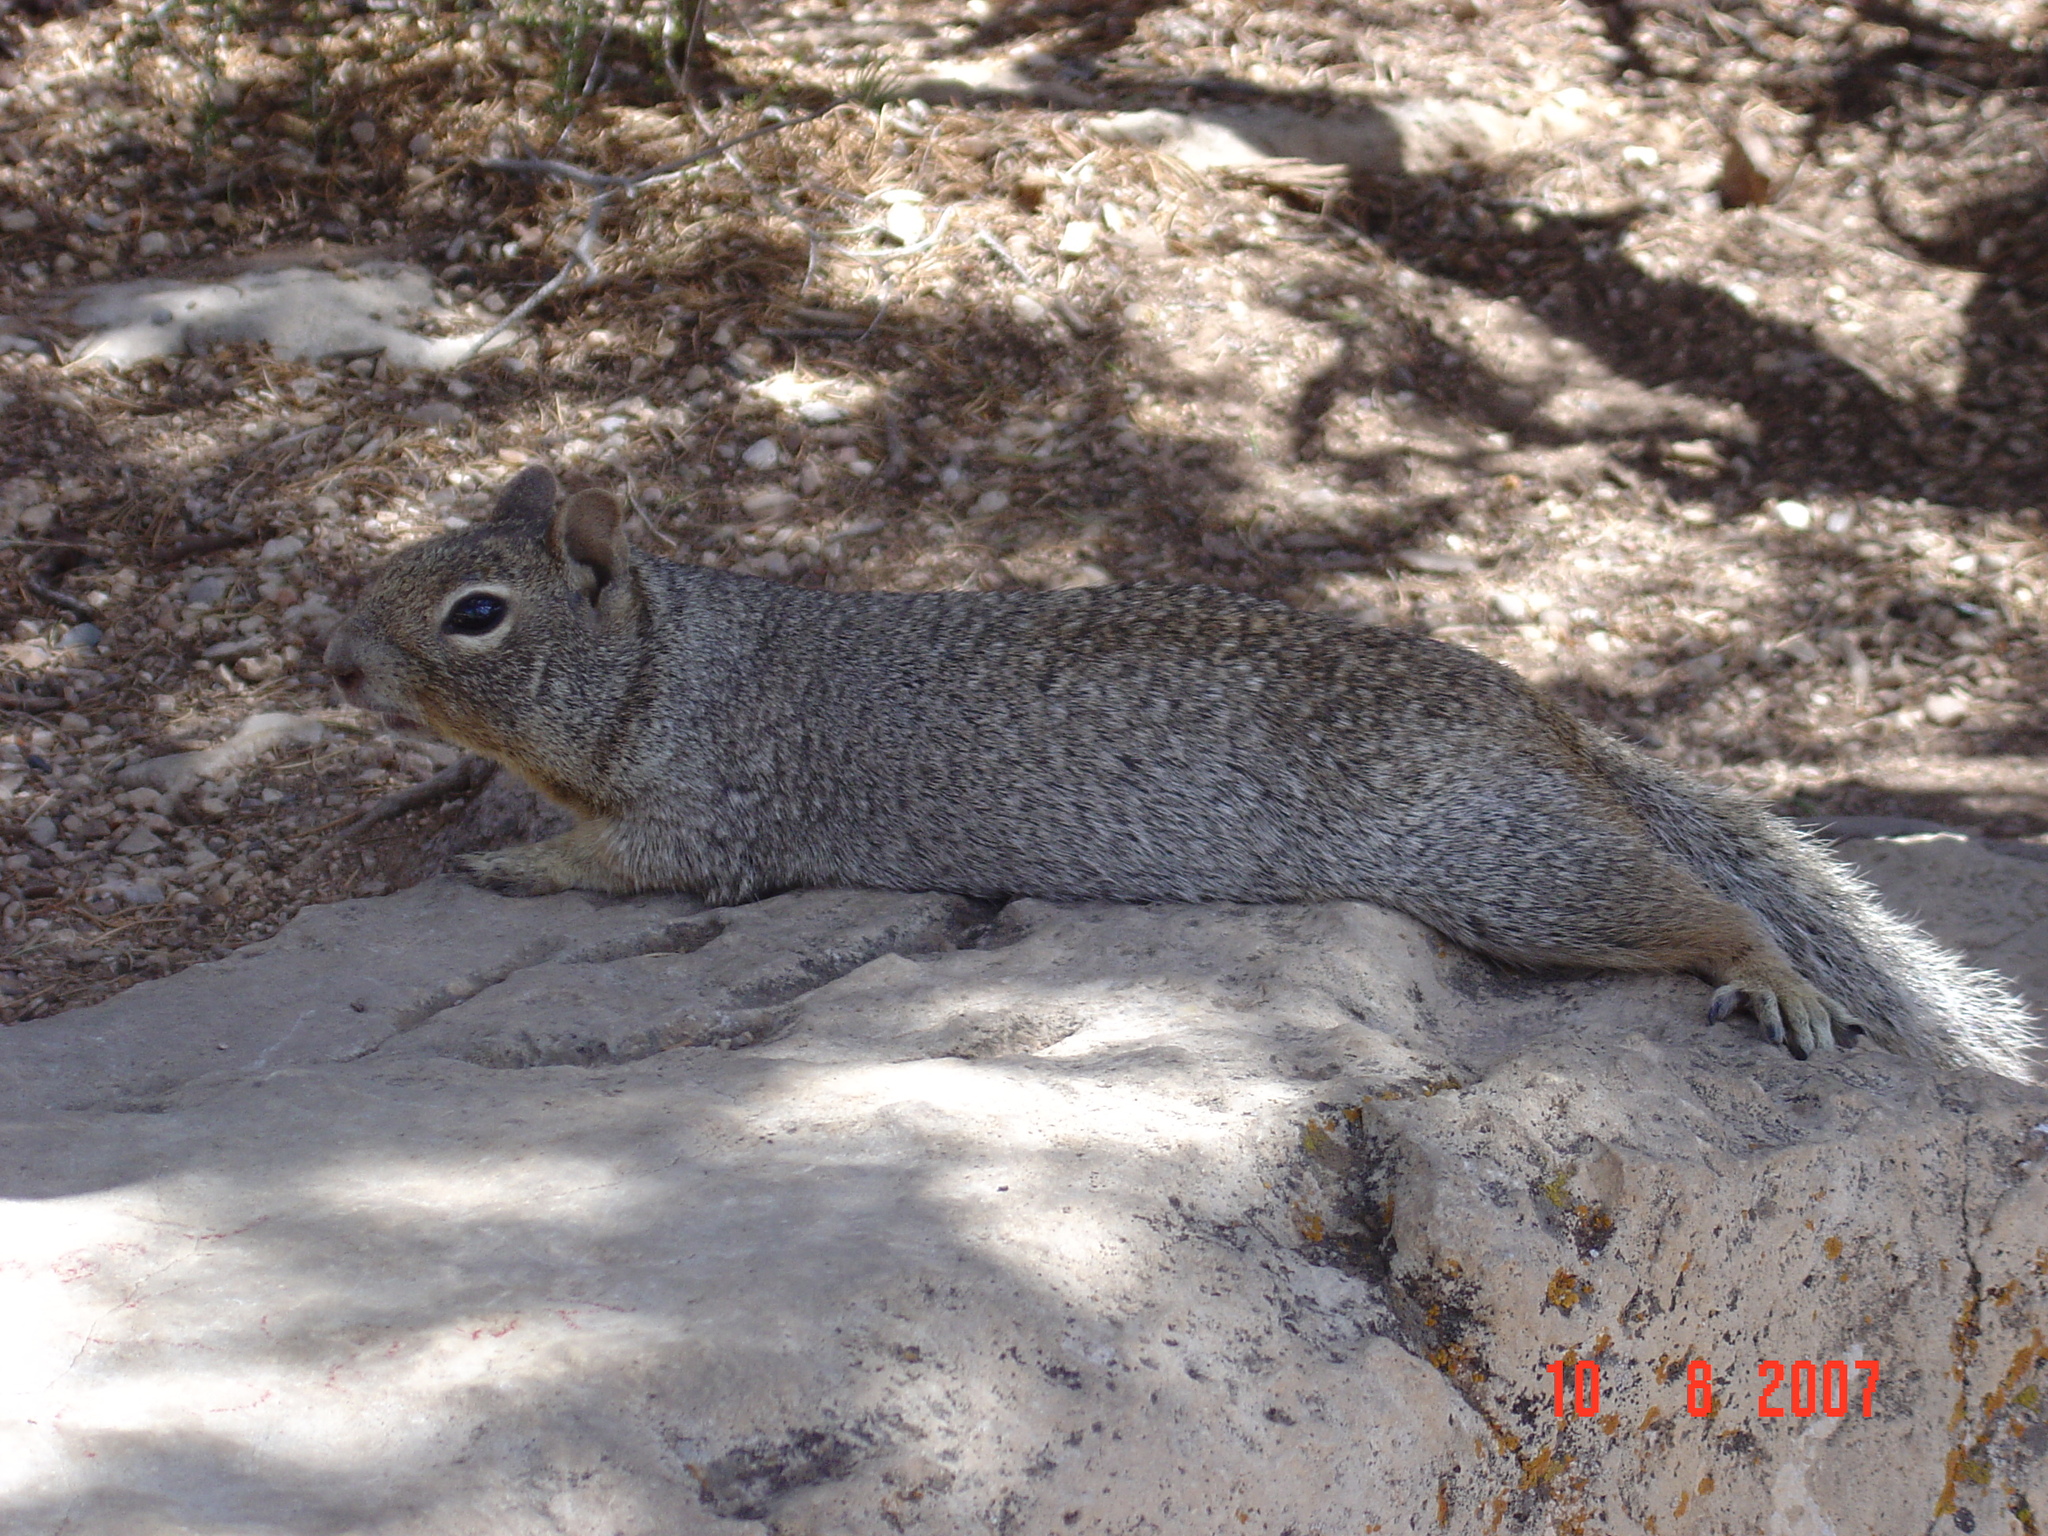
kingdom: Animalia
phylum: Chordata
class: Mammalia
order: Rodentia
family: Sciuridae
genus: Otospermophilus
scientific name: Otospermophilus variegatus
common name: Rock squirrel
